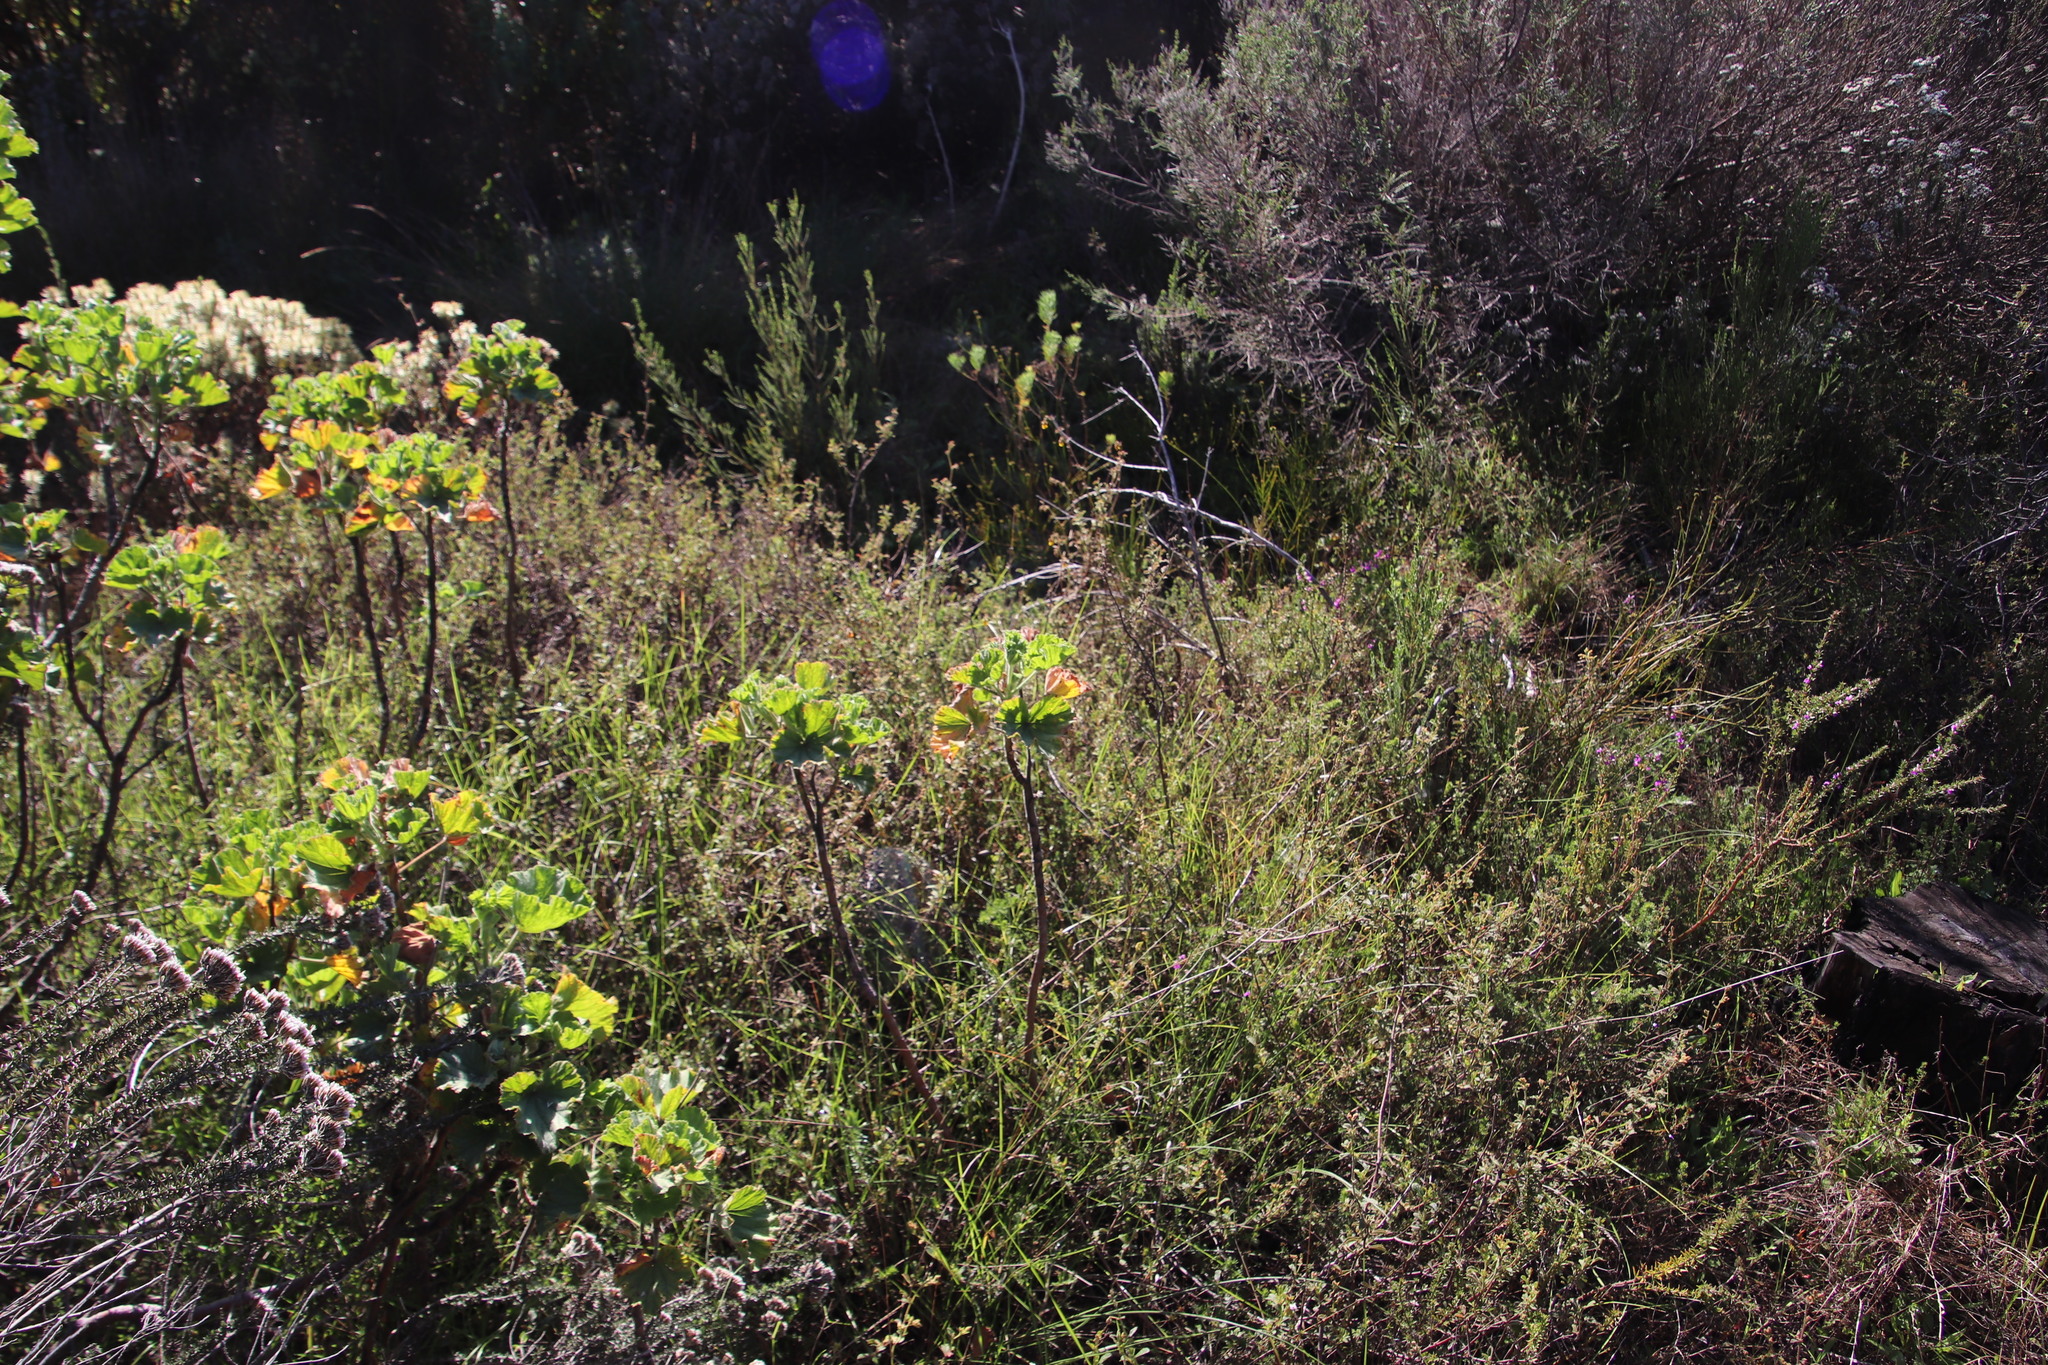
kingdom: Plantae
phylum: Tracheophyta
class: Magnoliopsida
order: Geraniales
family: Geraniaceae
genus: Pelargonium
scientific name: Pelargonium cucullatum
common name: Tree pelargonium
